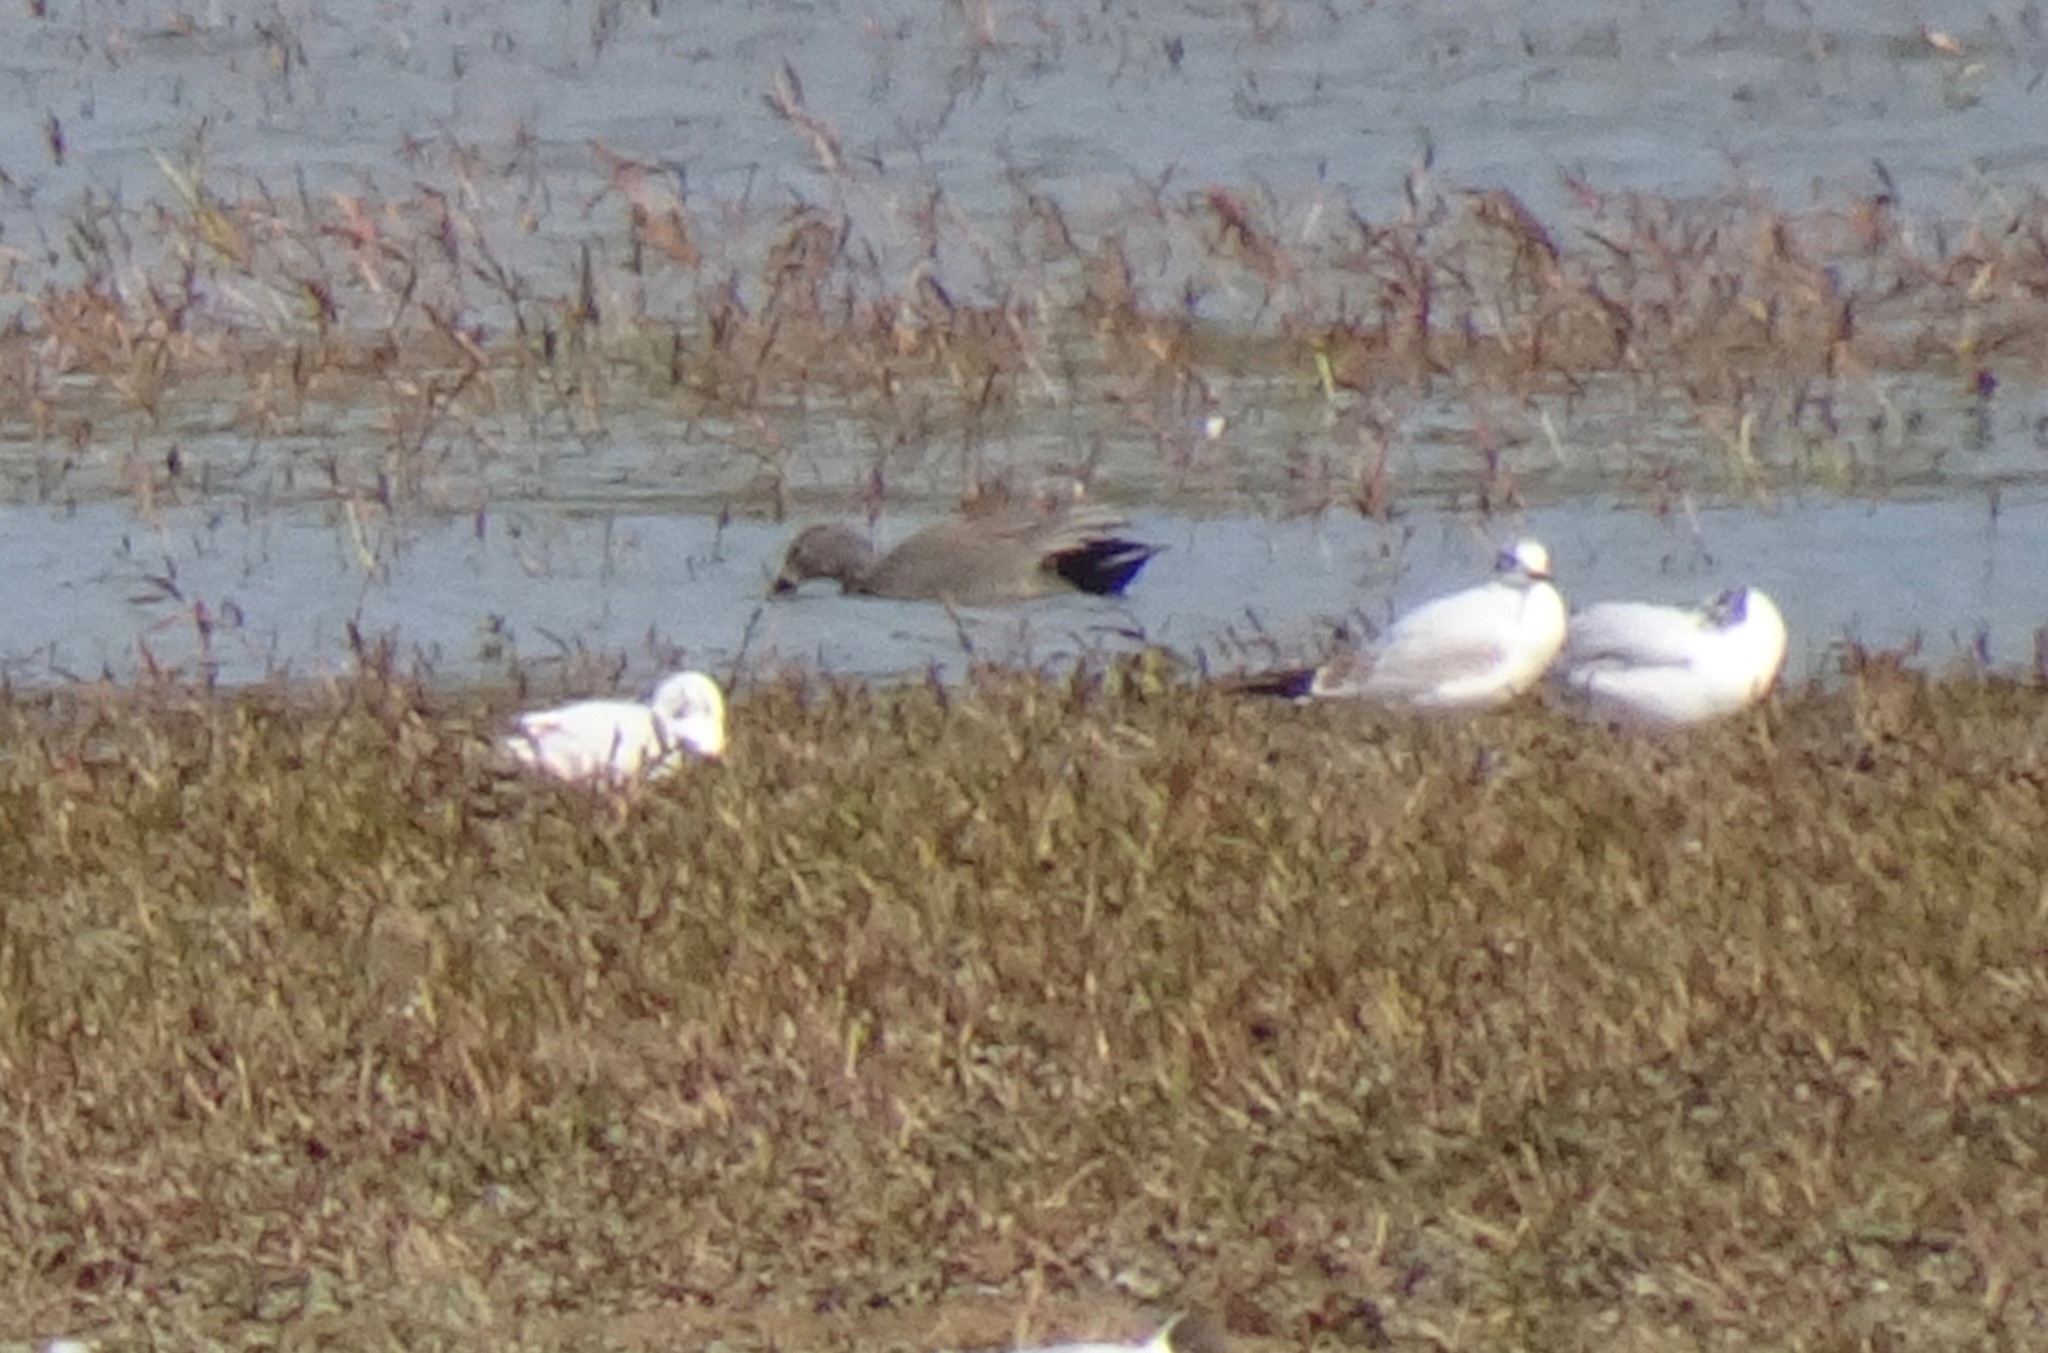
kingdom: Animalia
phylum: Chordata
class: Aves
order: Anseriformes
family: Anatidae
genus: Mareca
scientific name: Mareca strepera
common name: Gadwall
